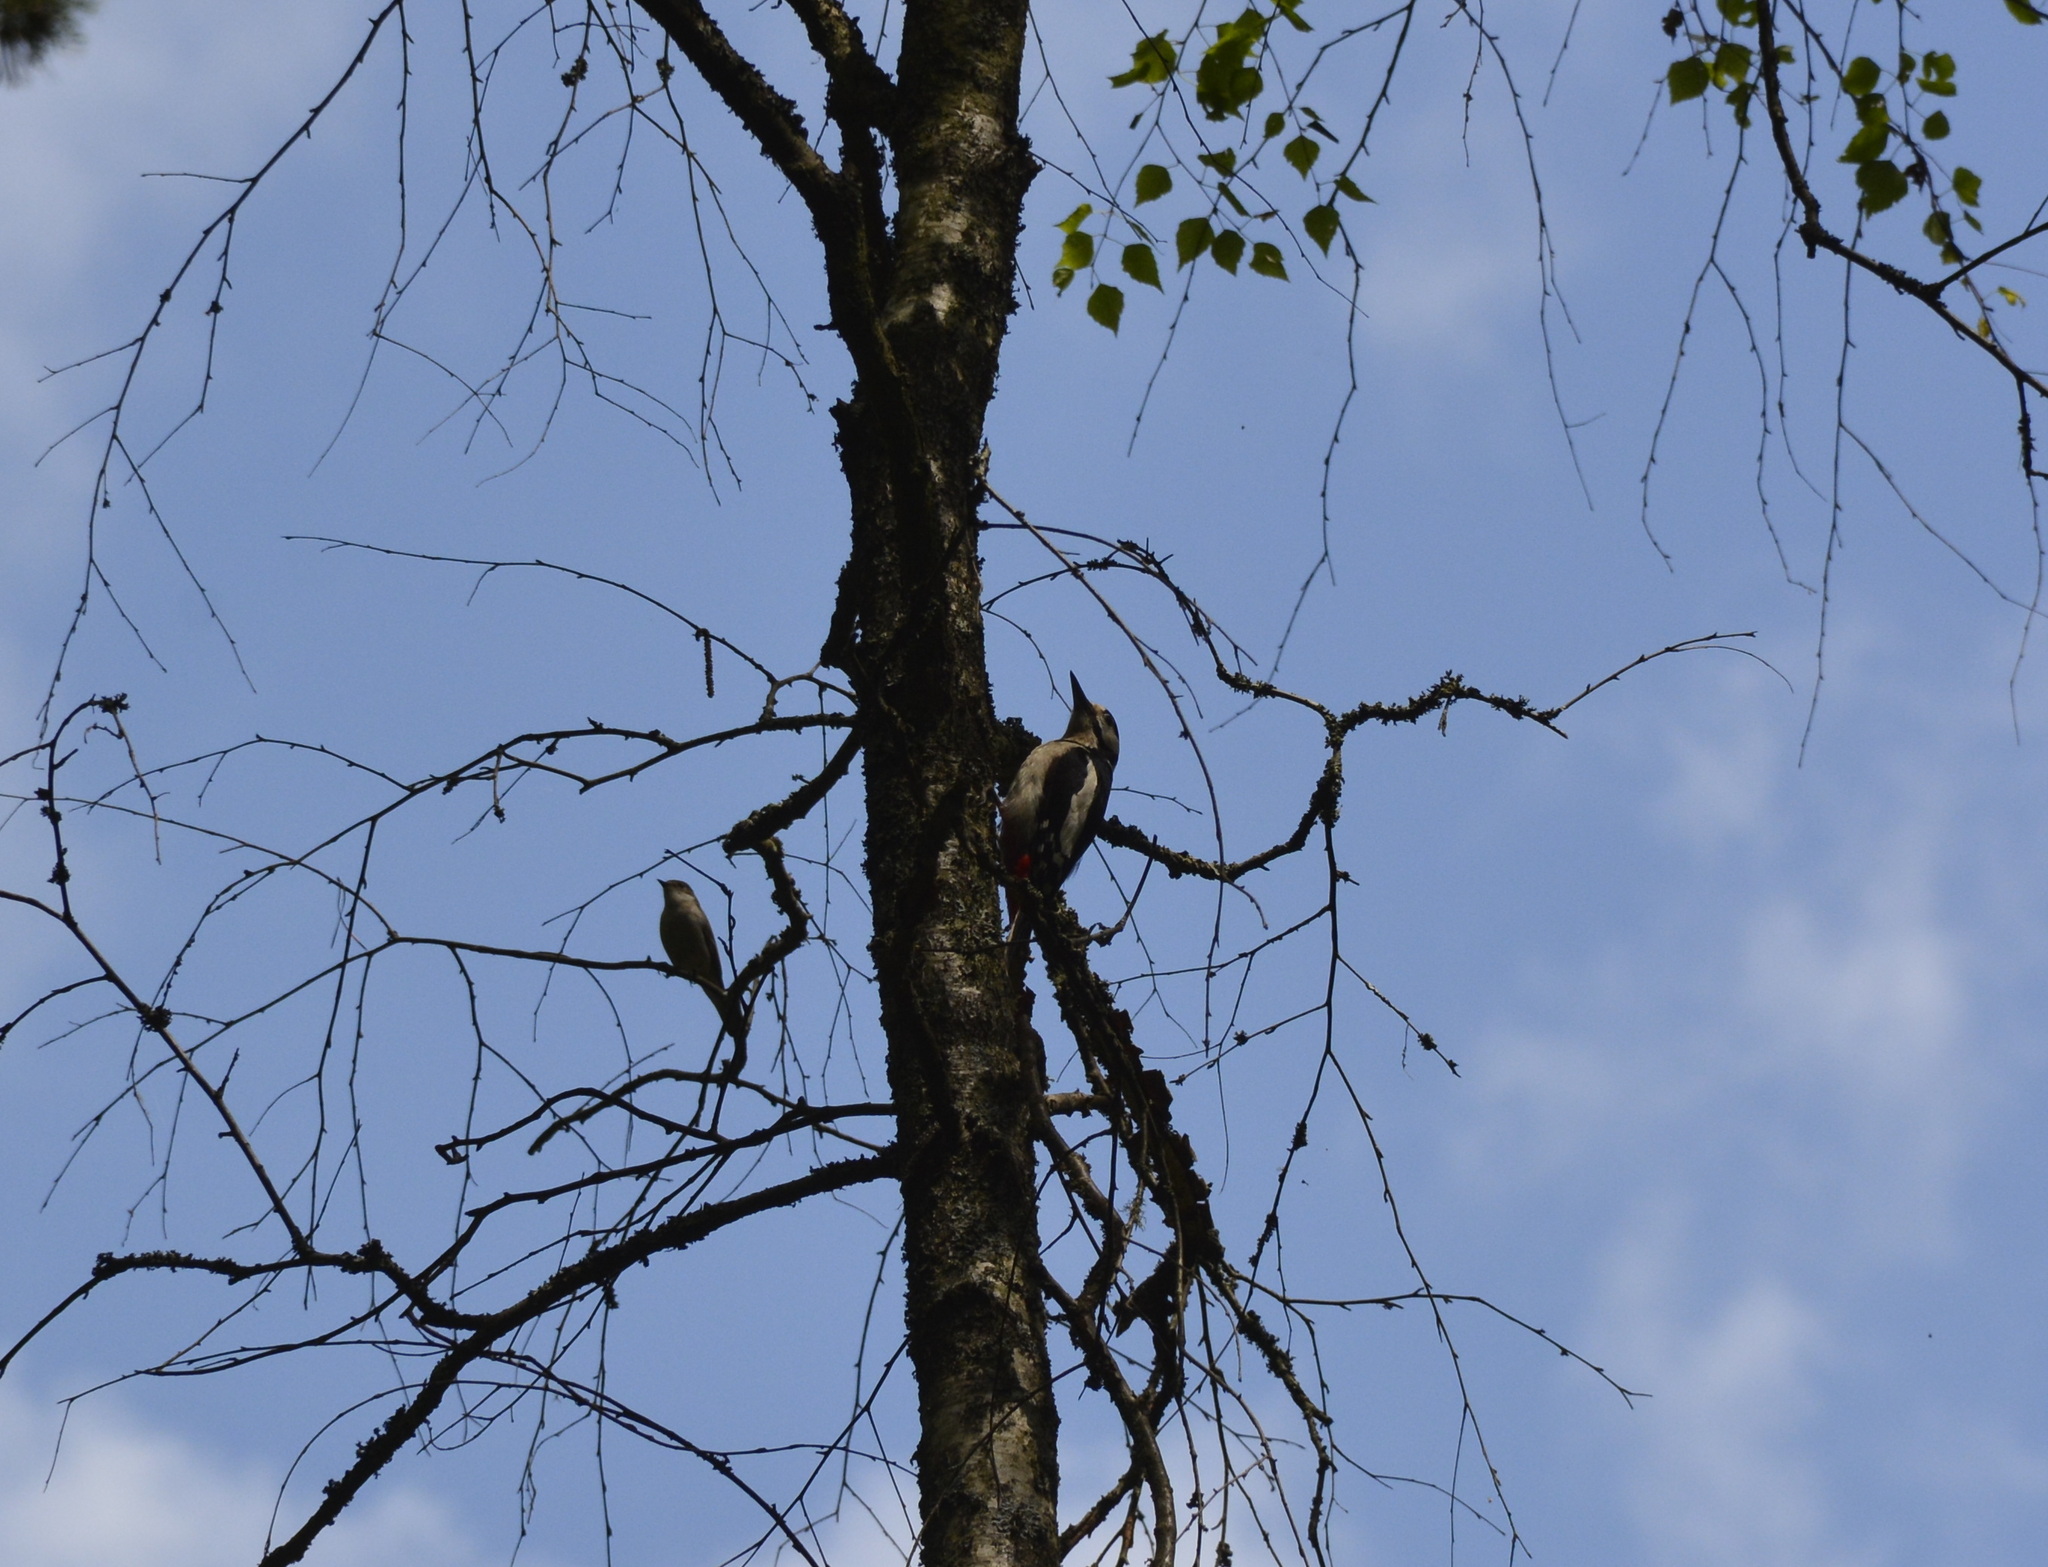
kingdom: Animalia
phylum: Chordata
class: Aves
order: Piciformes
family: Picidae
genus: Dendrocopos
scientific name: Dendrocopos major
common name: Great spotted woodpecker
